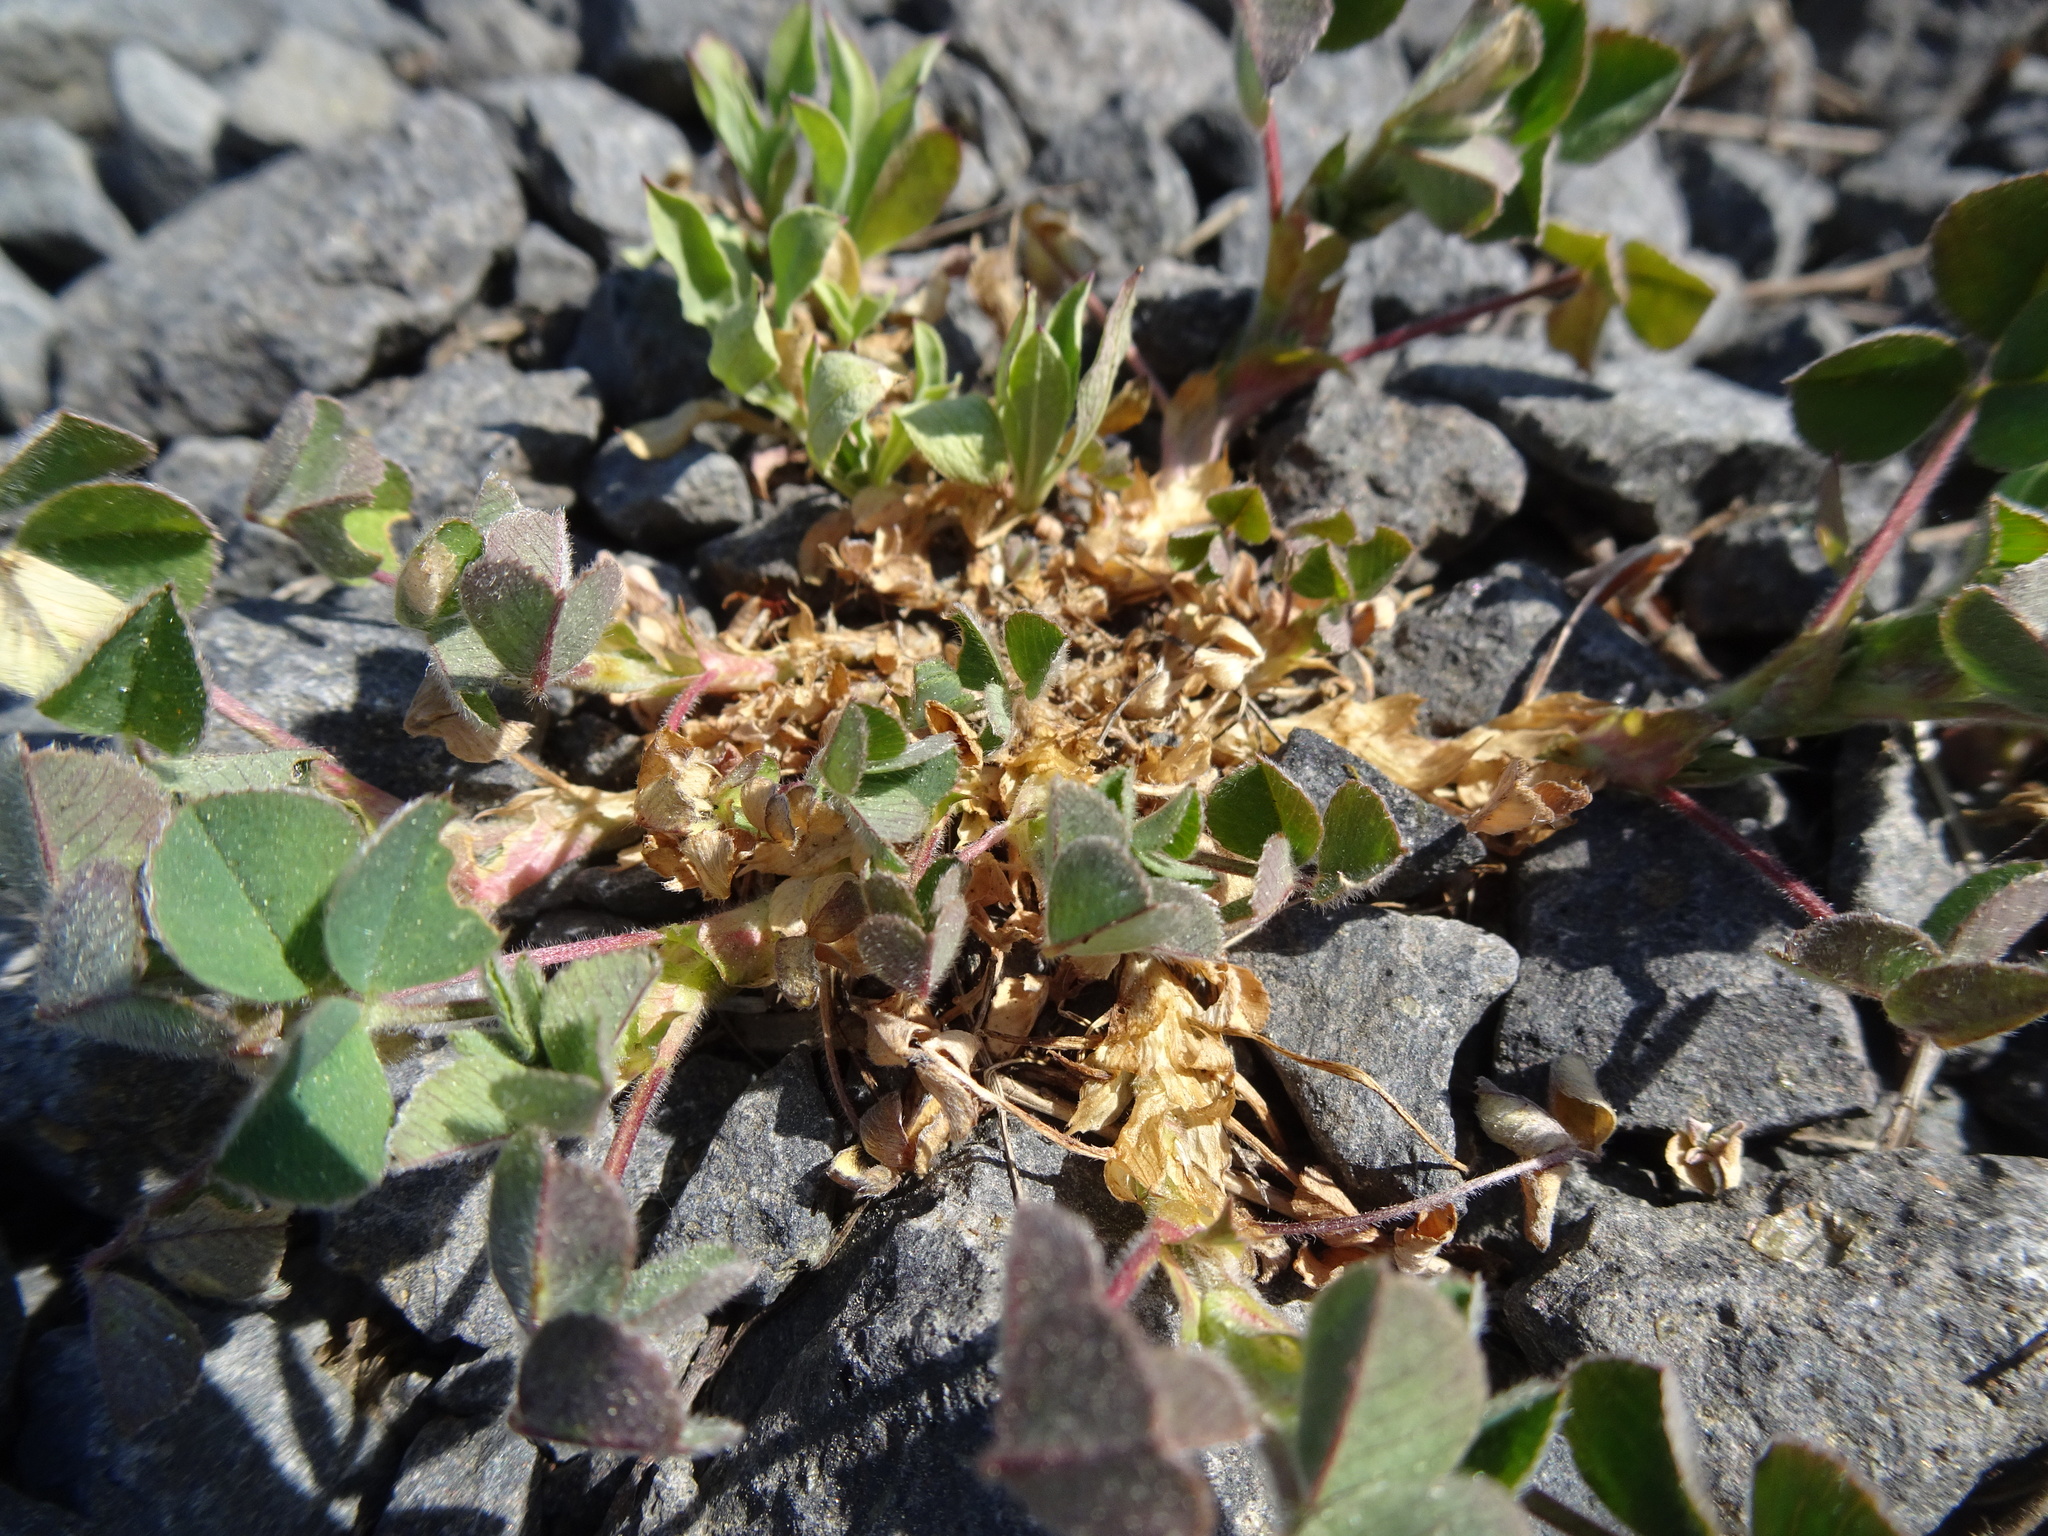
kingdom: Plantae
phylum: Tracheophyta
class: Magnoliopsida
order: Fabales
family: Fabaceae
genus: Medicago
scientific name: Medicago lupulina
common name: Black medick
